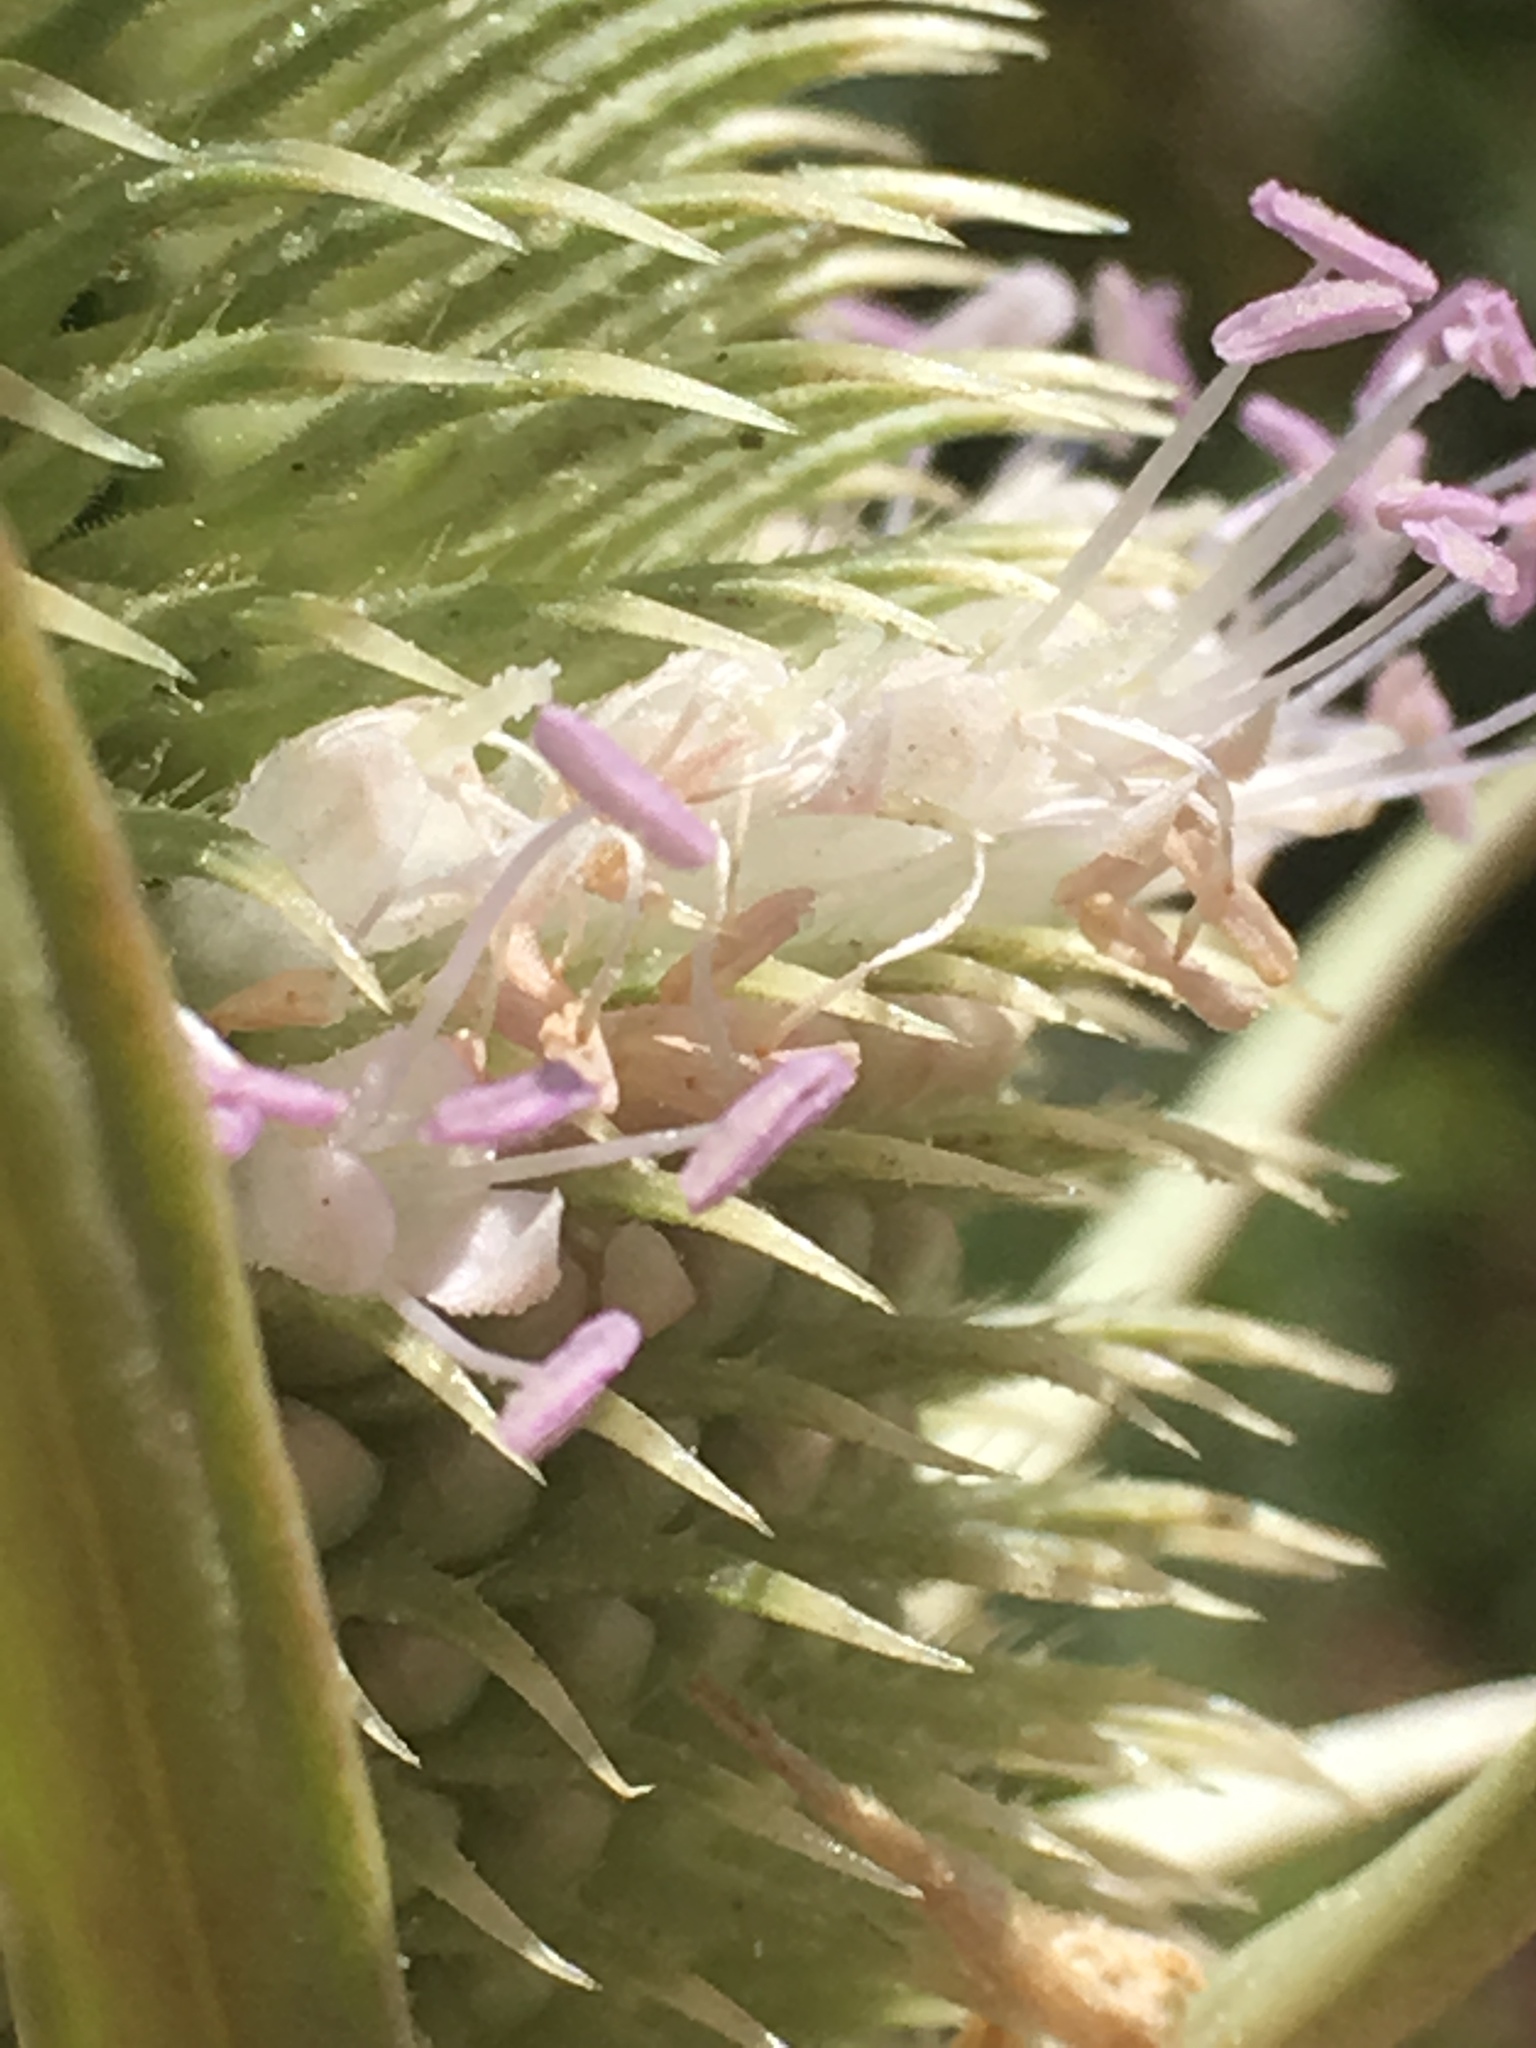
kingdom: Plantae
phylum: Tracheophyta
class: Magnoliopsida
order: Dipsacales
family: Caprifoliaceae
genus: Dipsacus
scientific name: Dipsacus sativus
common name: Fuller's teasel
